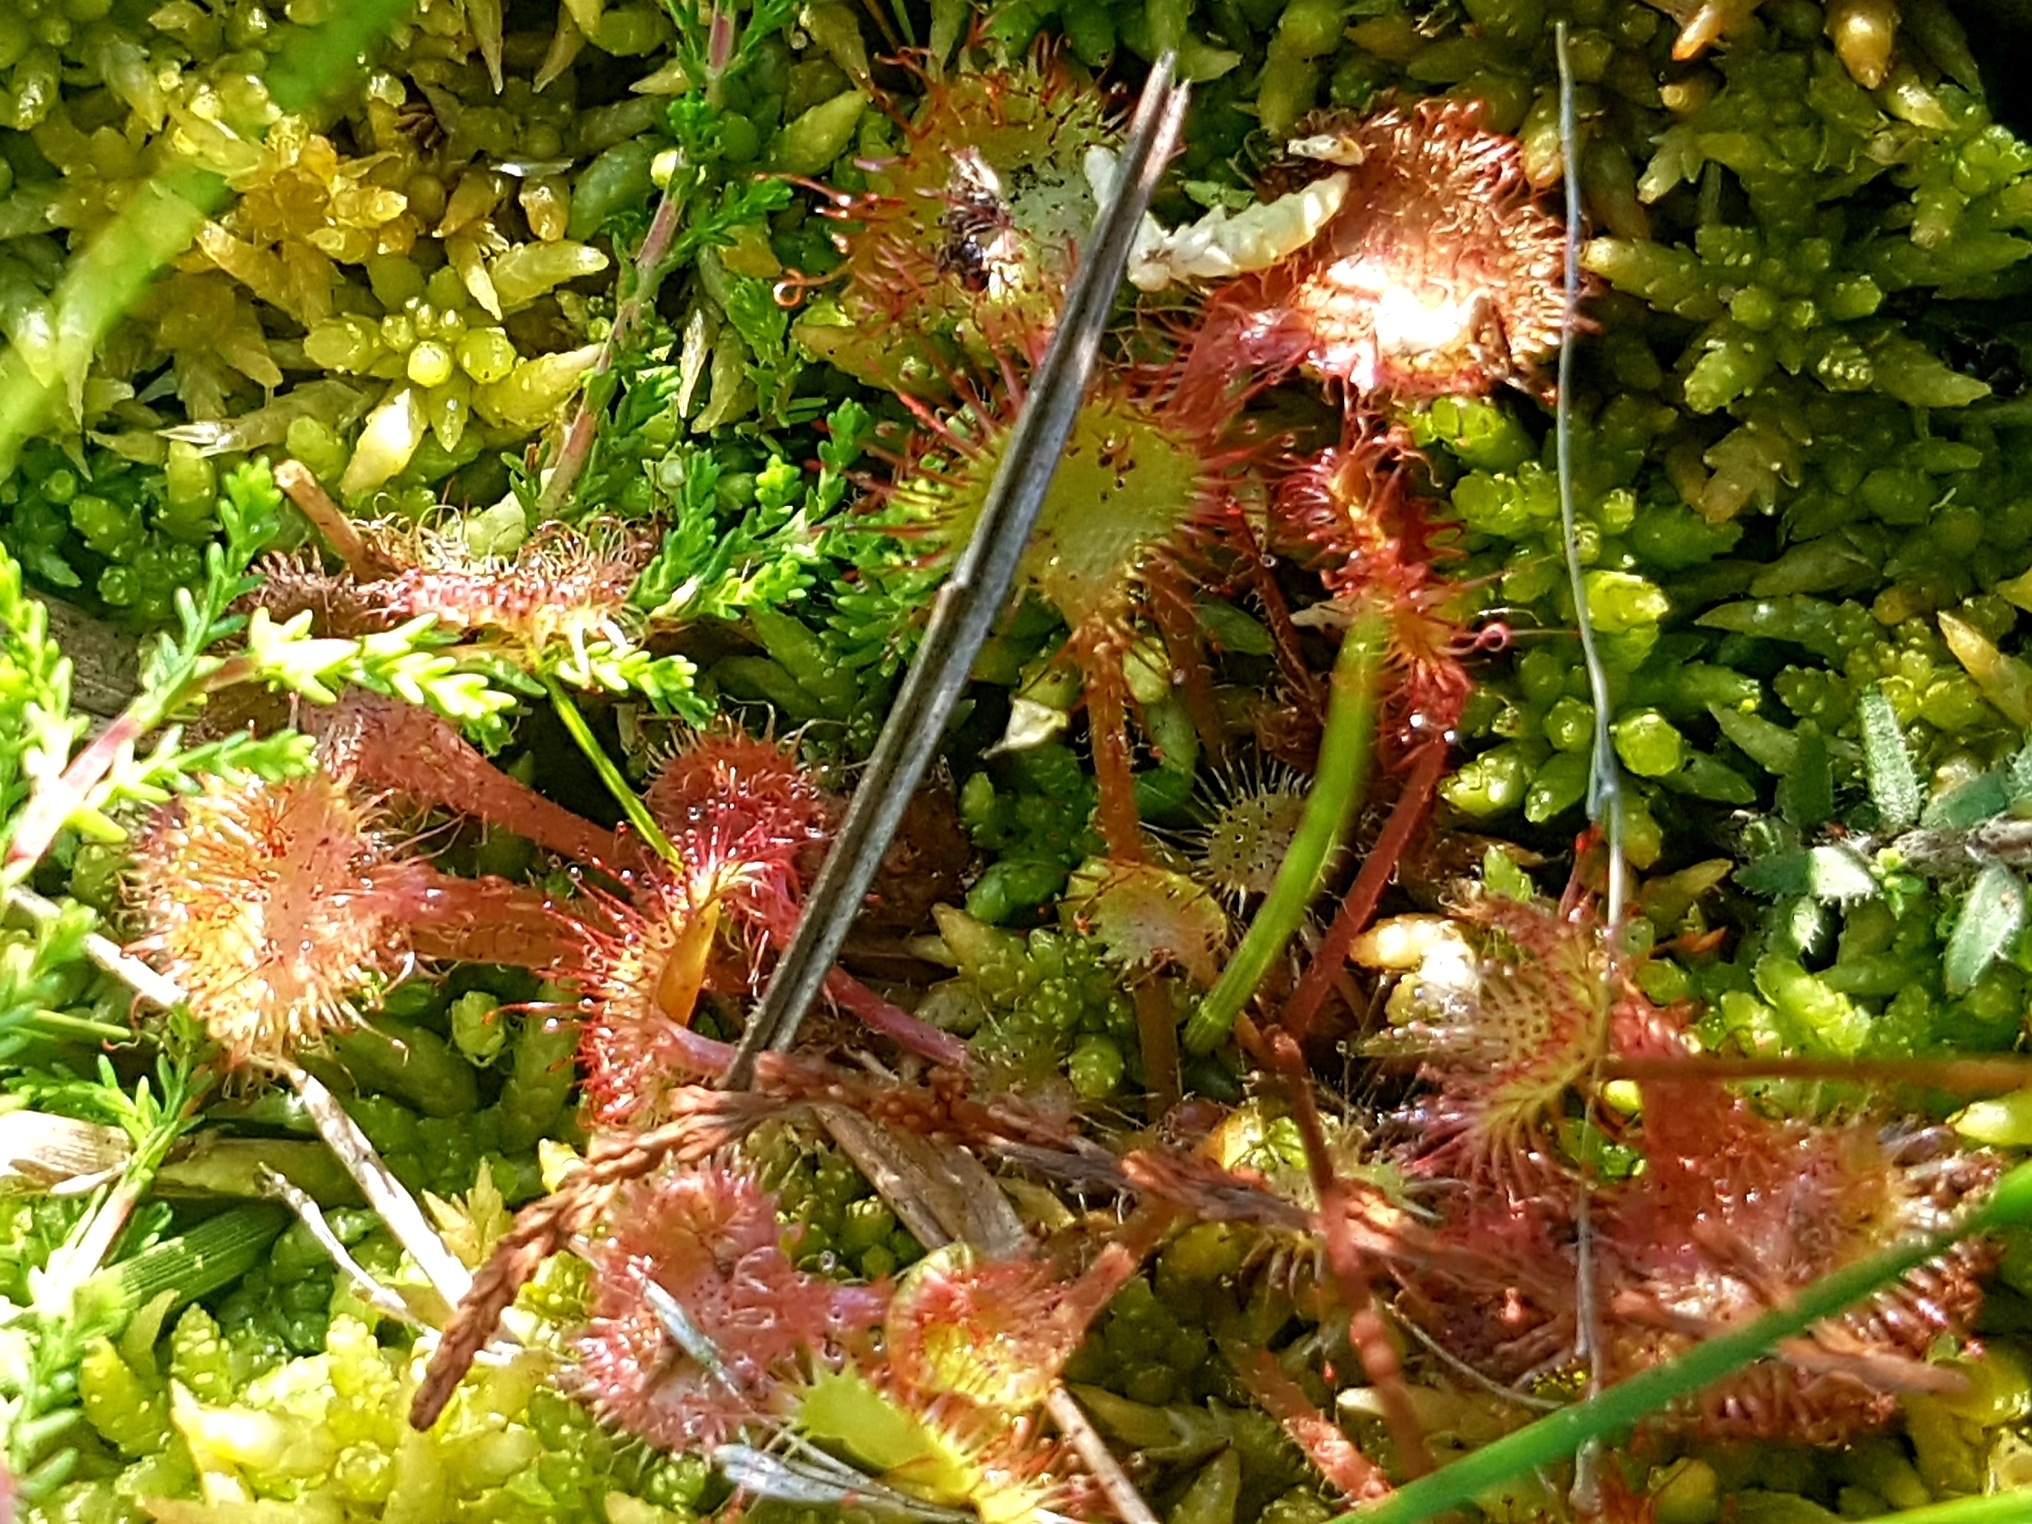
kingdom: Plantae
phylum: Tracheophyta
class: Magnoliopsida
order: Caryophyllales
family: Droseraceae
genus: Drosera
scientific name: Drosera rotundifolia
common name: Round-leaved sundew
